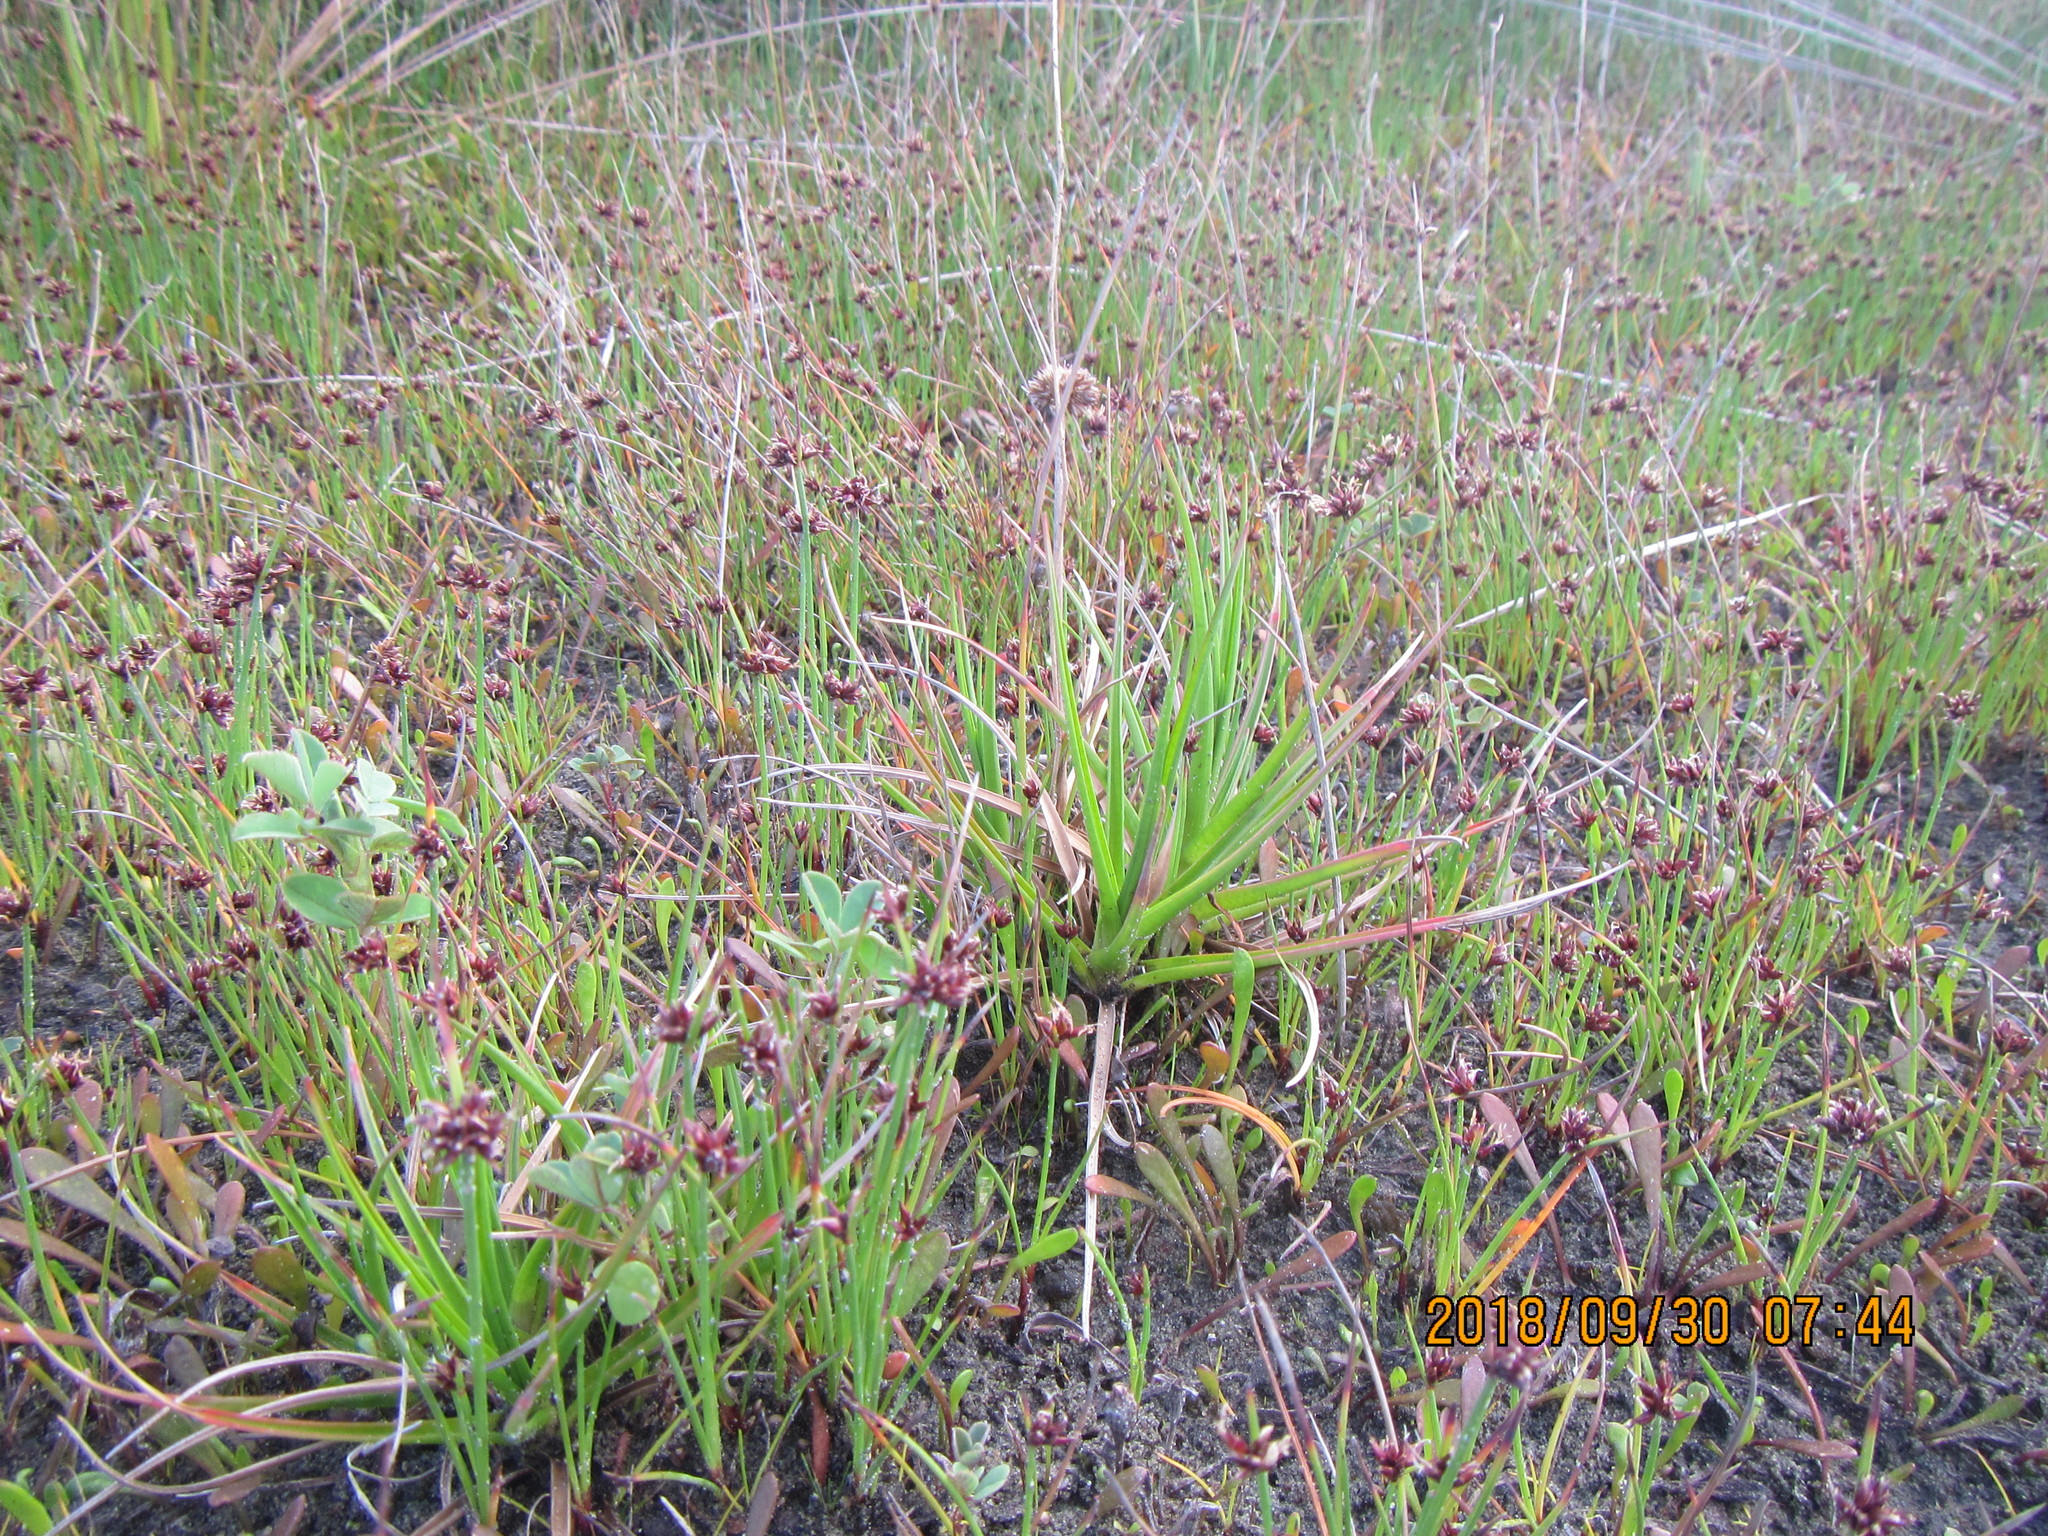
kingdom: Plantae
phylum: Tracheophyta
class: Liliopsida
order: Poales
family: Juncaceae
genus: Juncus
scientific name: Juncus caespiticius
